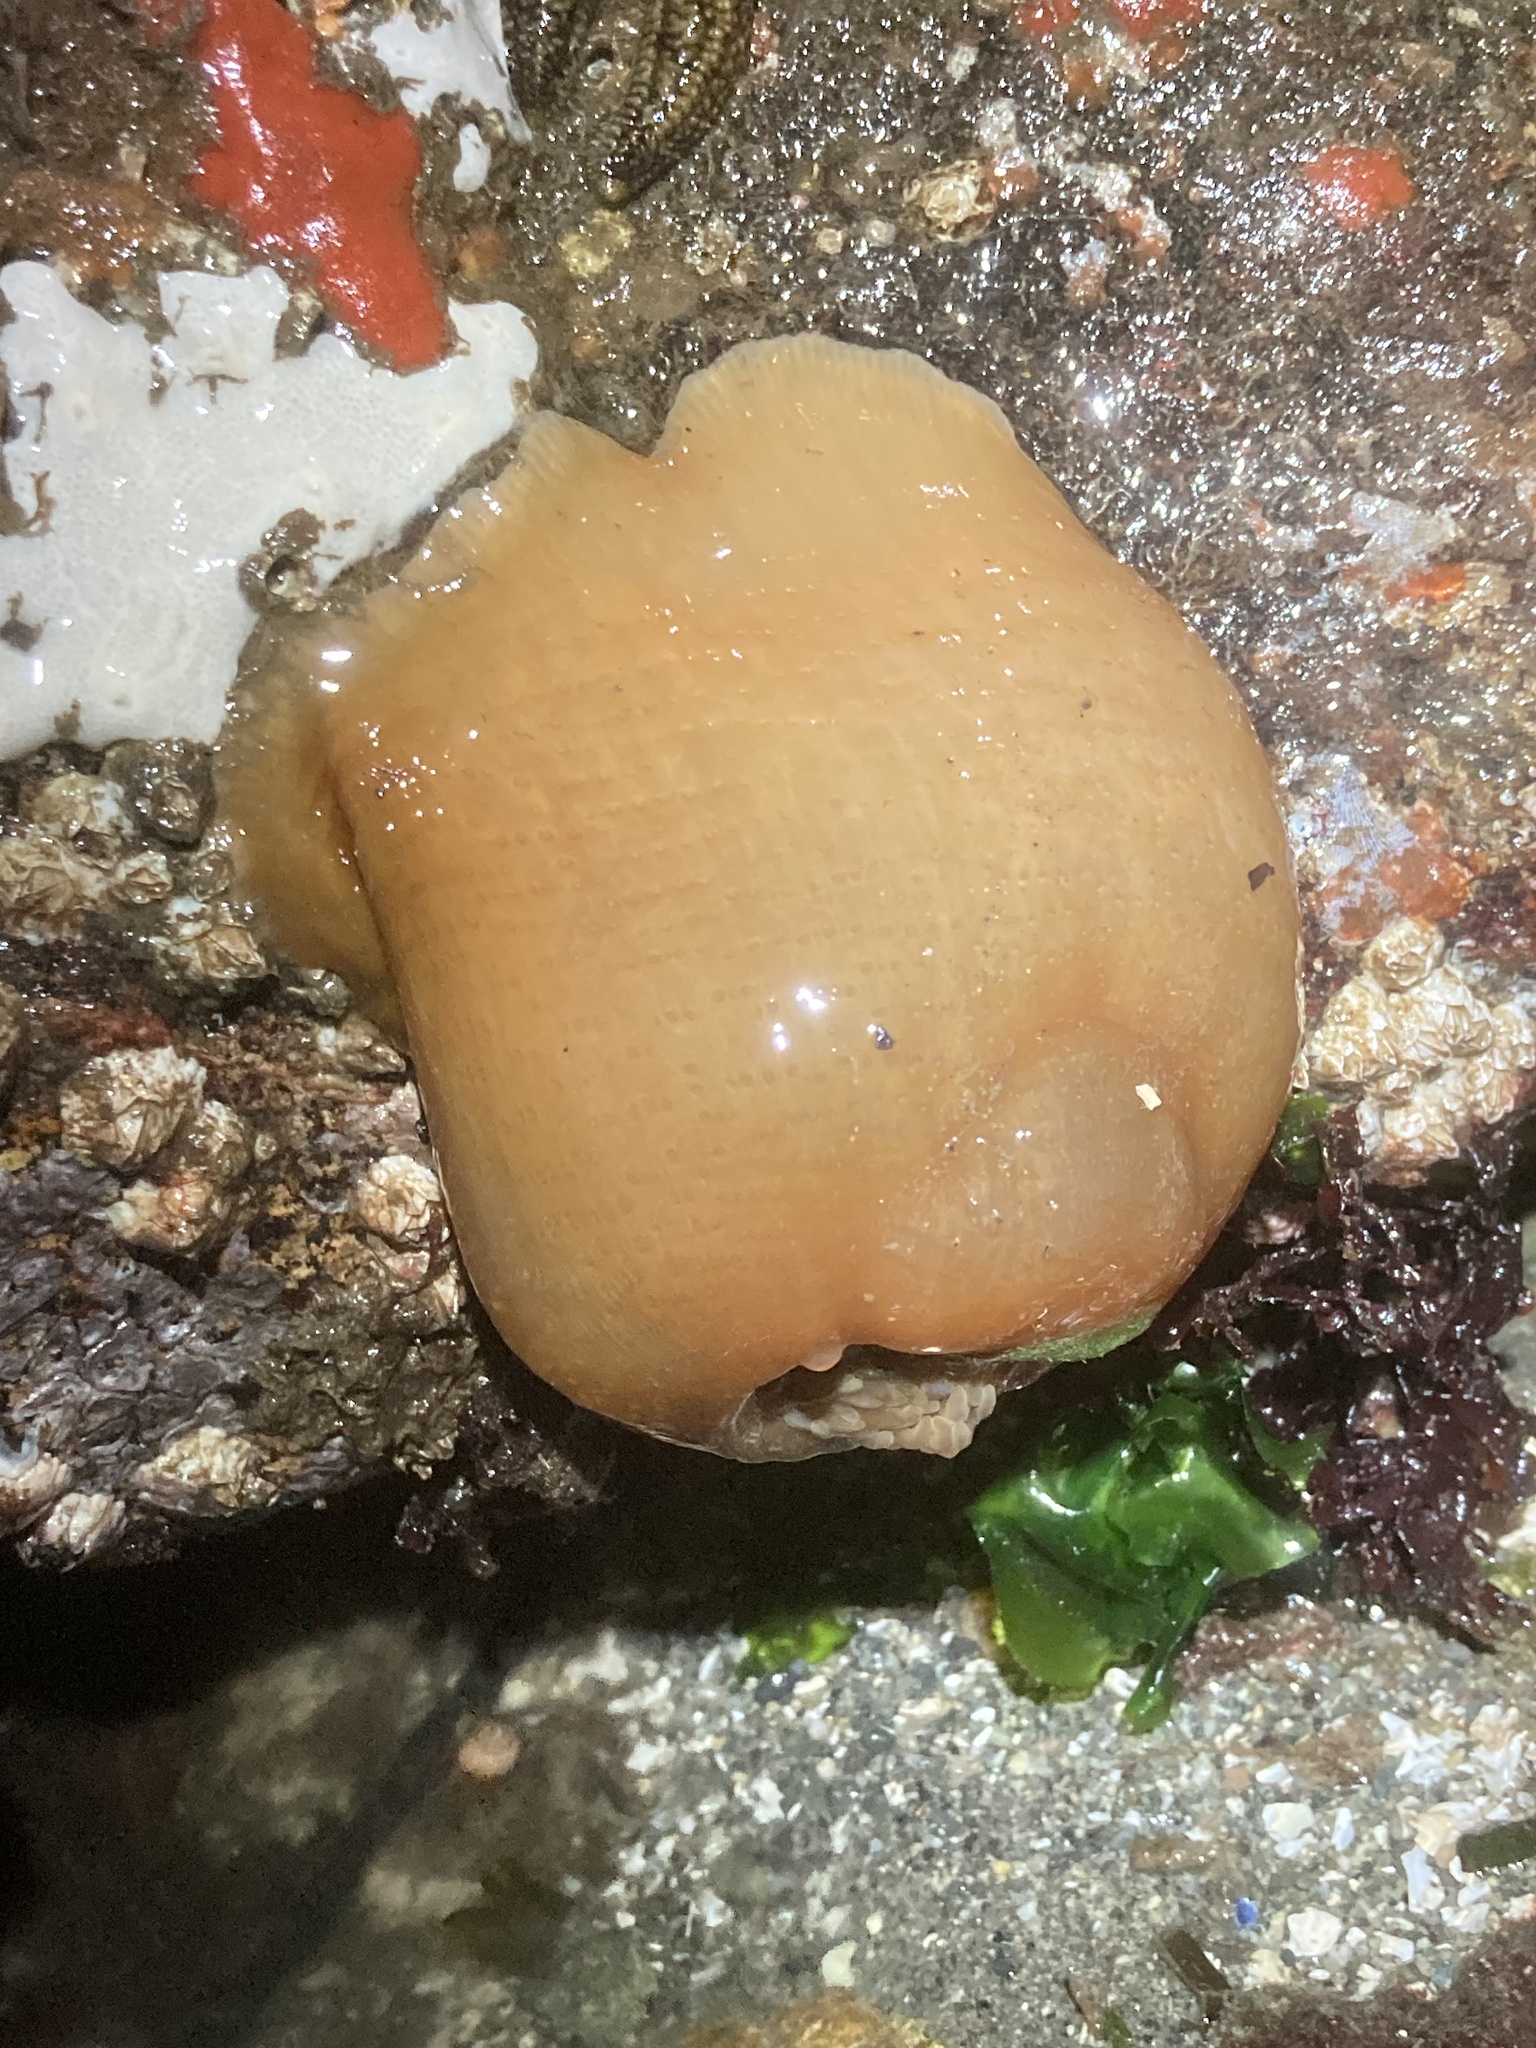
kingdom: Animalia
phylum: Cnidaria
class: Anthozoa
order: Actiniaria
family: Actiniidae
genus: Urticina
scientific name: Urticina grebelnyi
